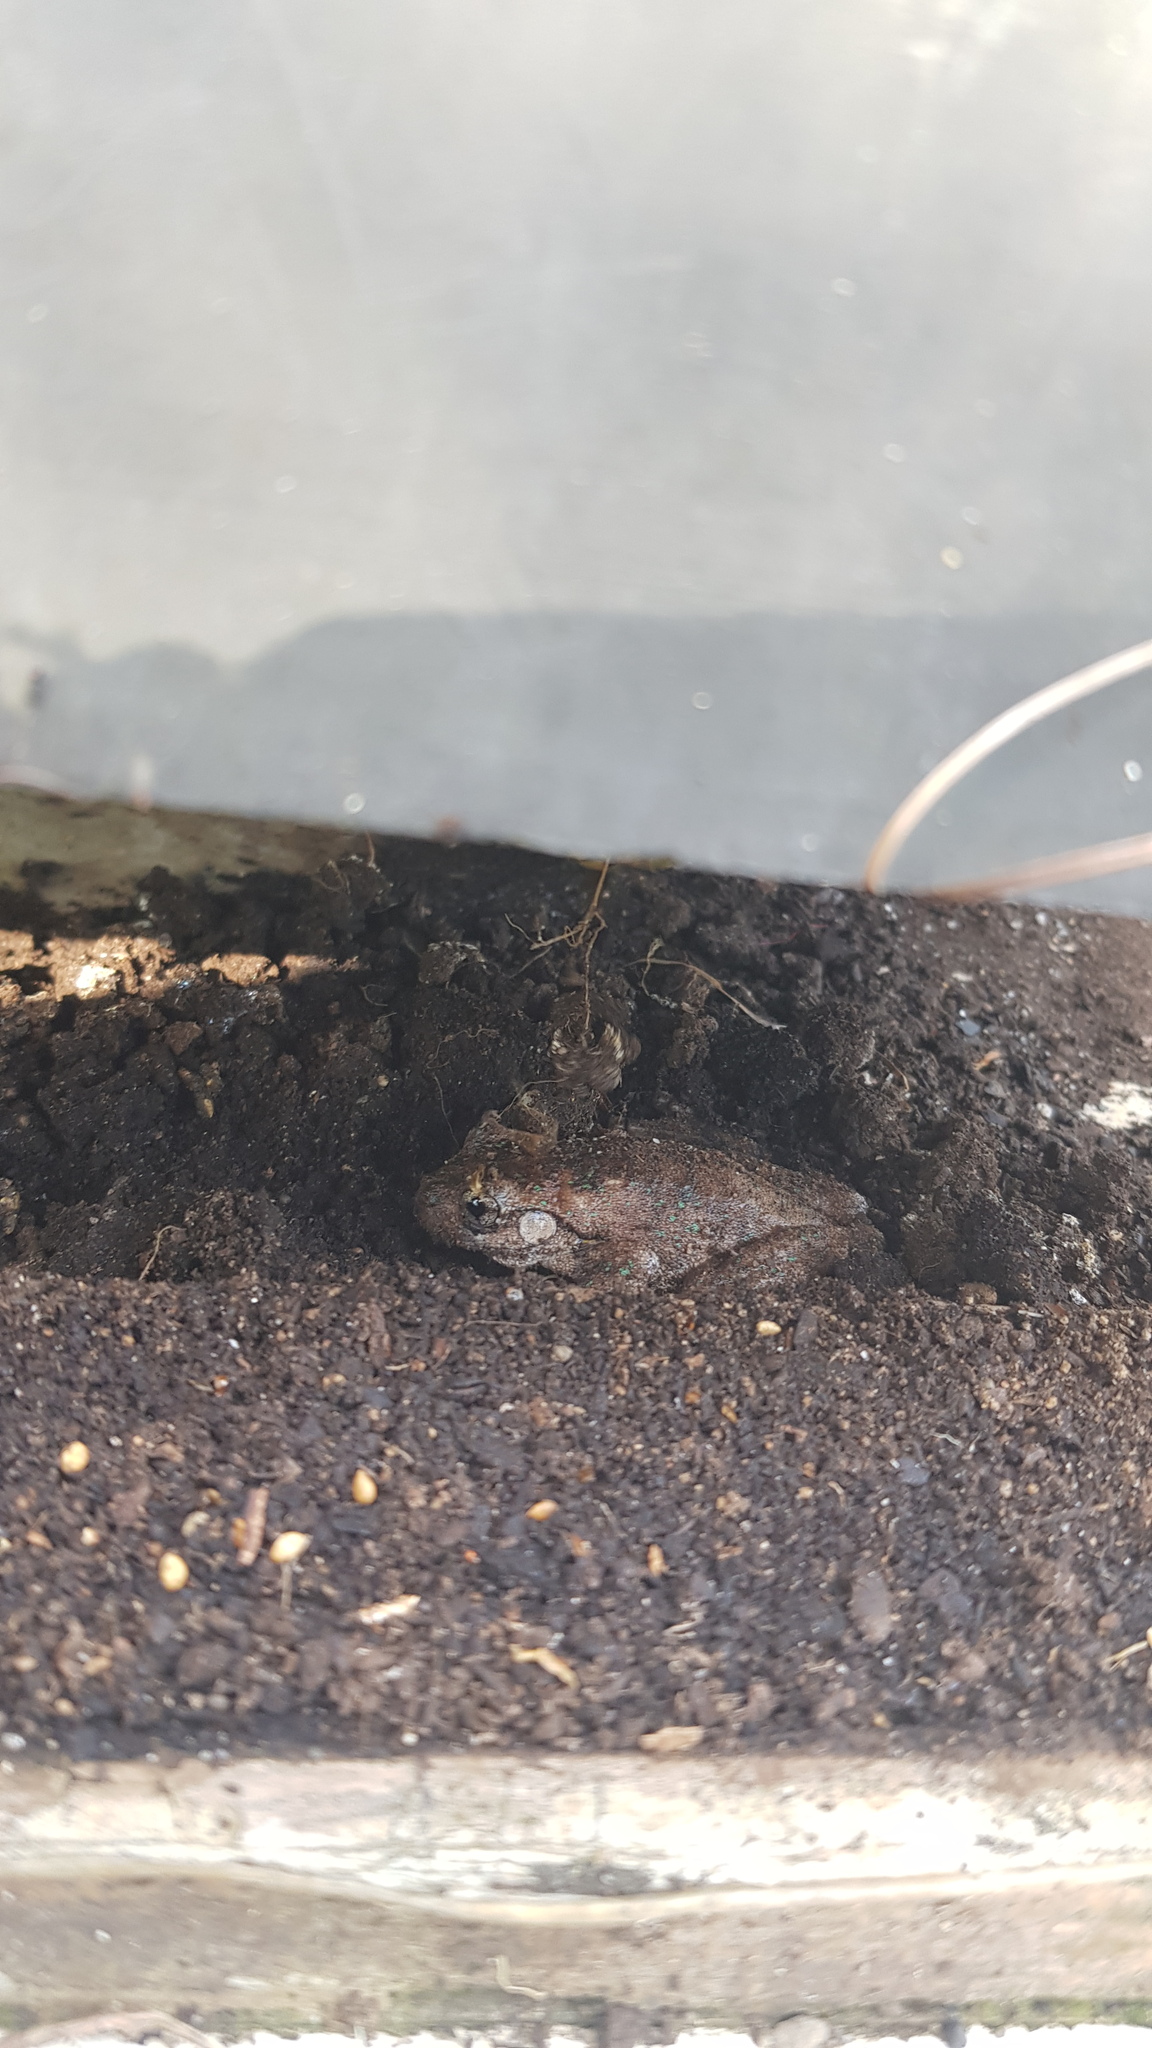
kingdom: Animalia
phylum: Chordata
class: Amphibia
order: Anura
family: Pelodryadidae
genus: Litoria
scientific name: Litoria peronii
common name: Emerald spotted treefrog
